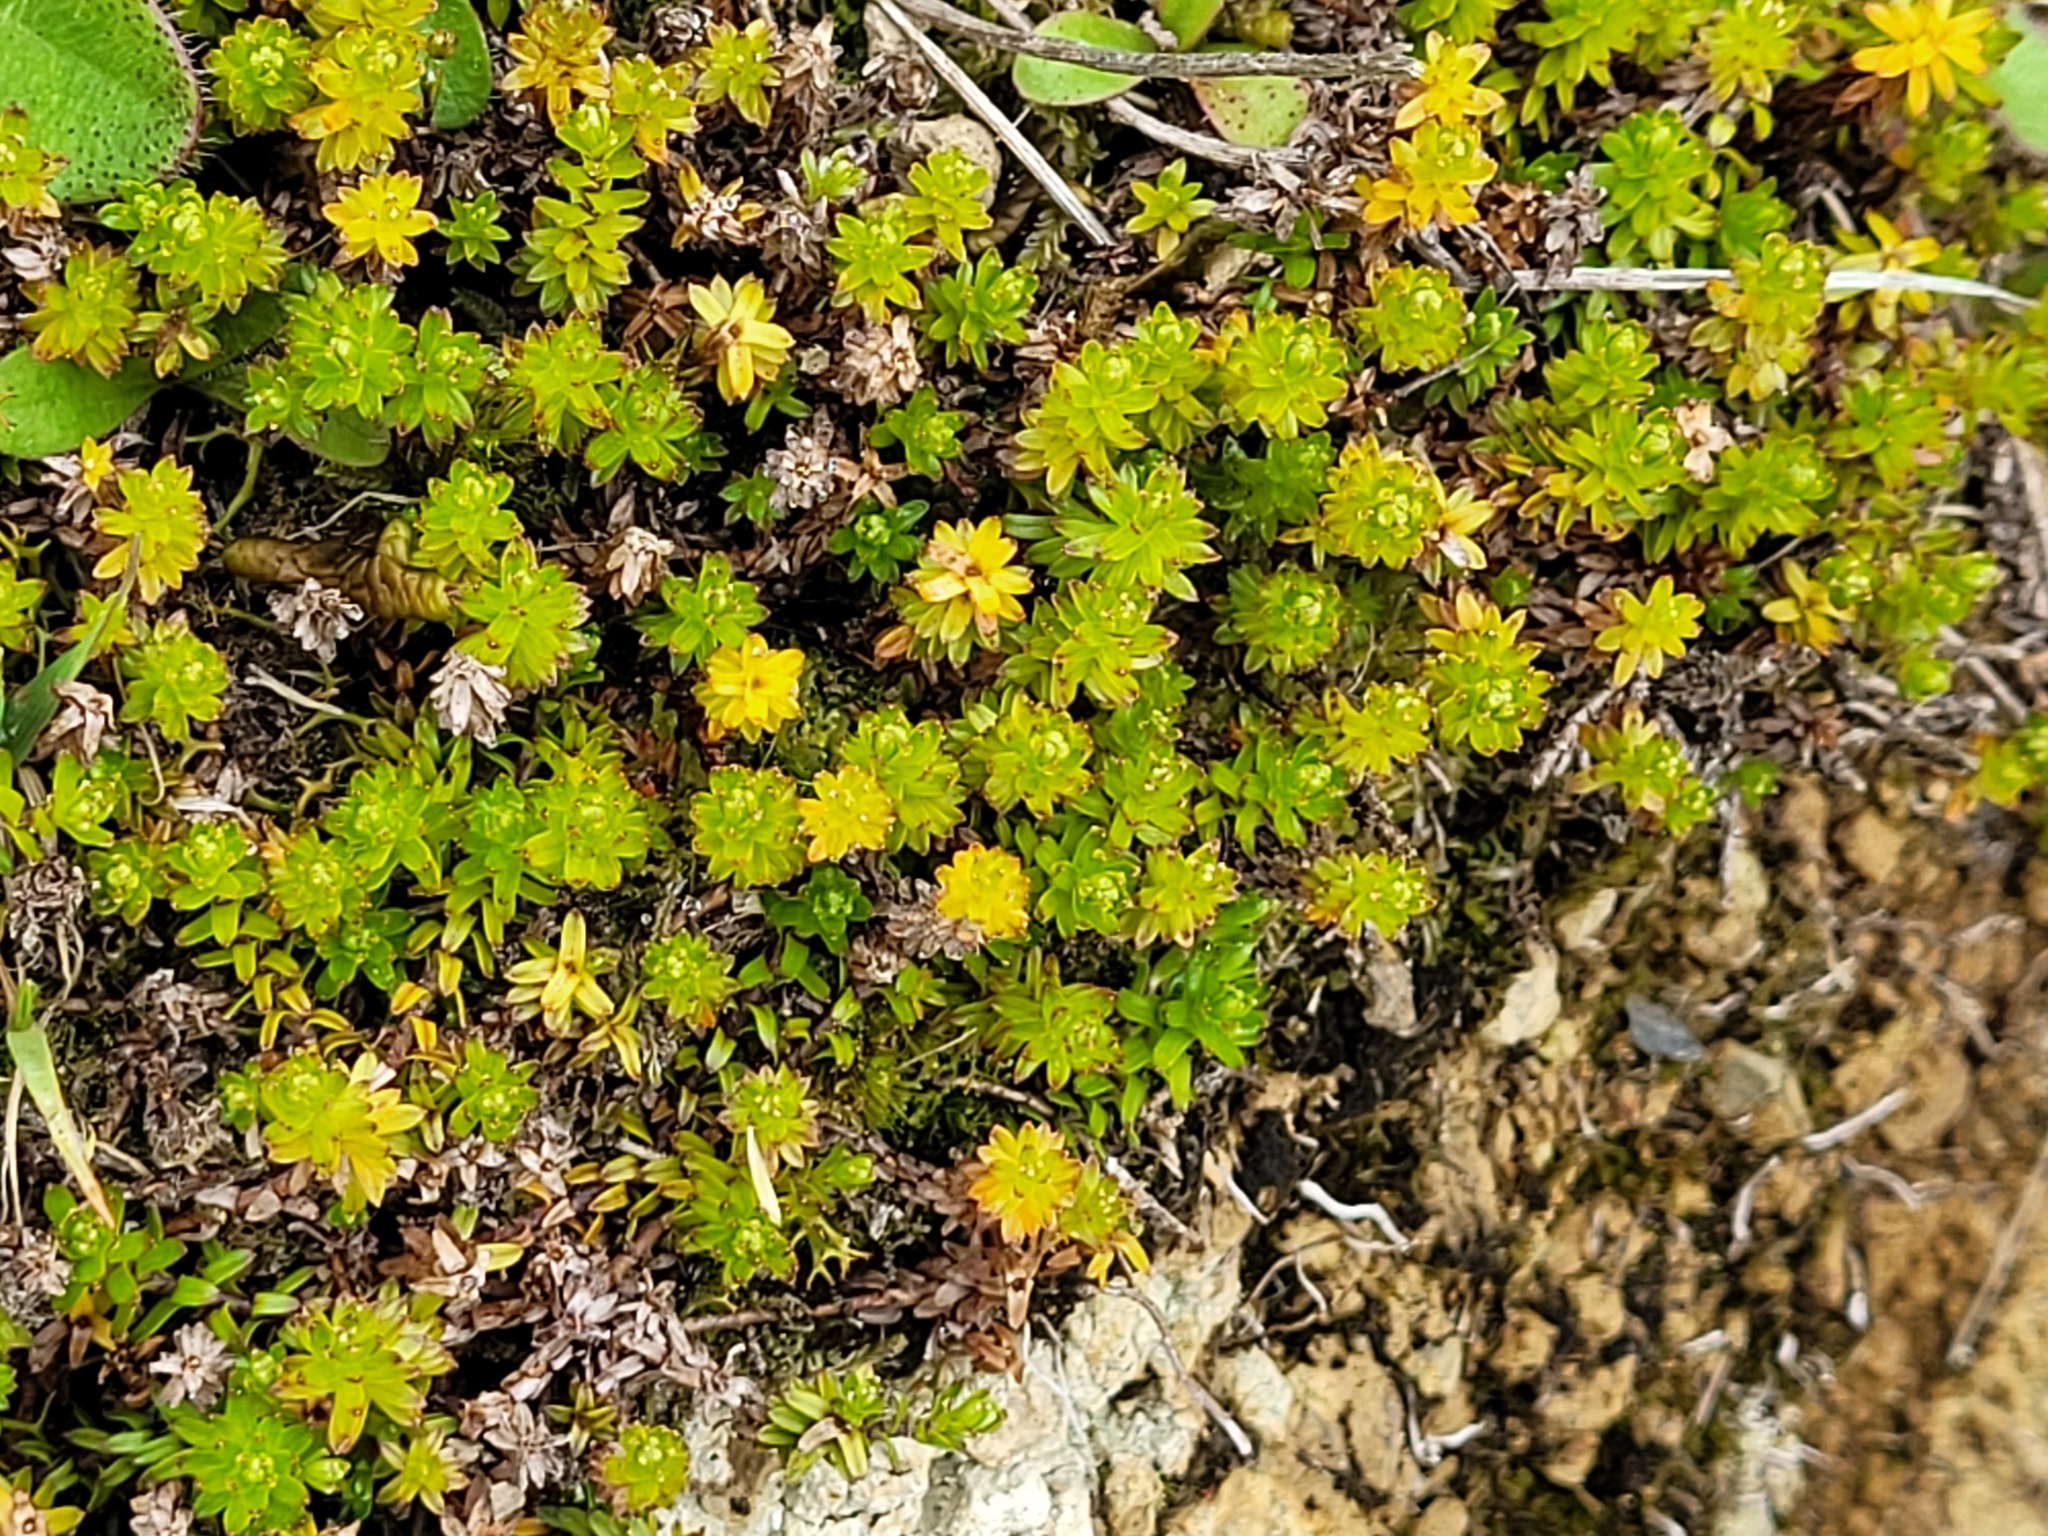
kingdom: Plantae
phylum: Tracheophyta
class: Magnoliopsida
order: Asterales
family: Asteraceae
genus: Raoulia
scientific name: Raoulia glabra
